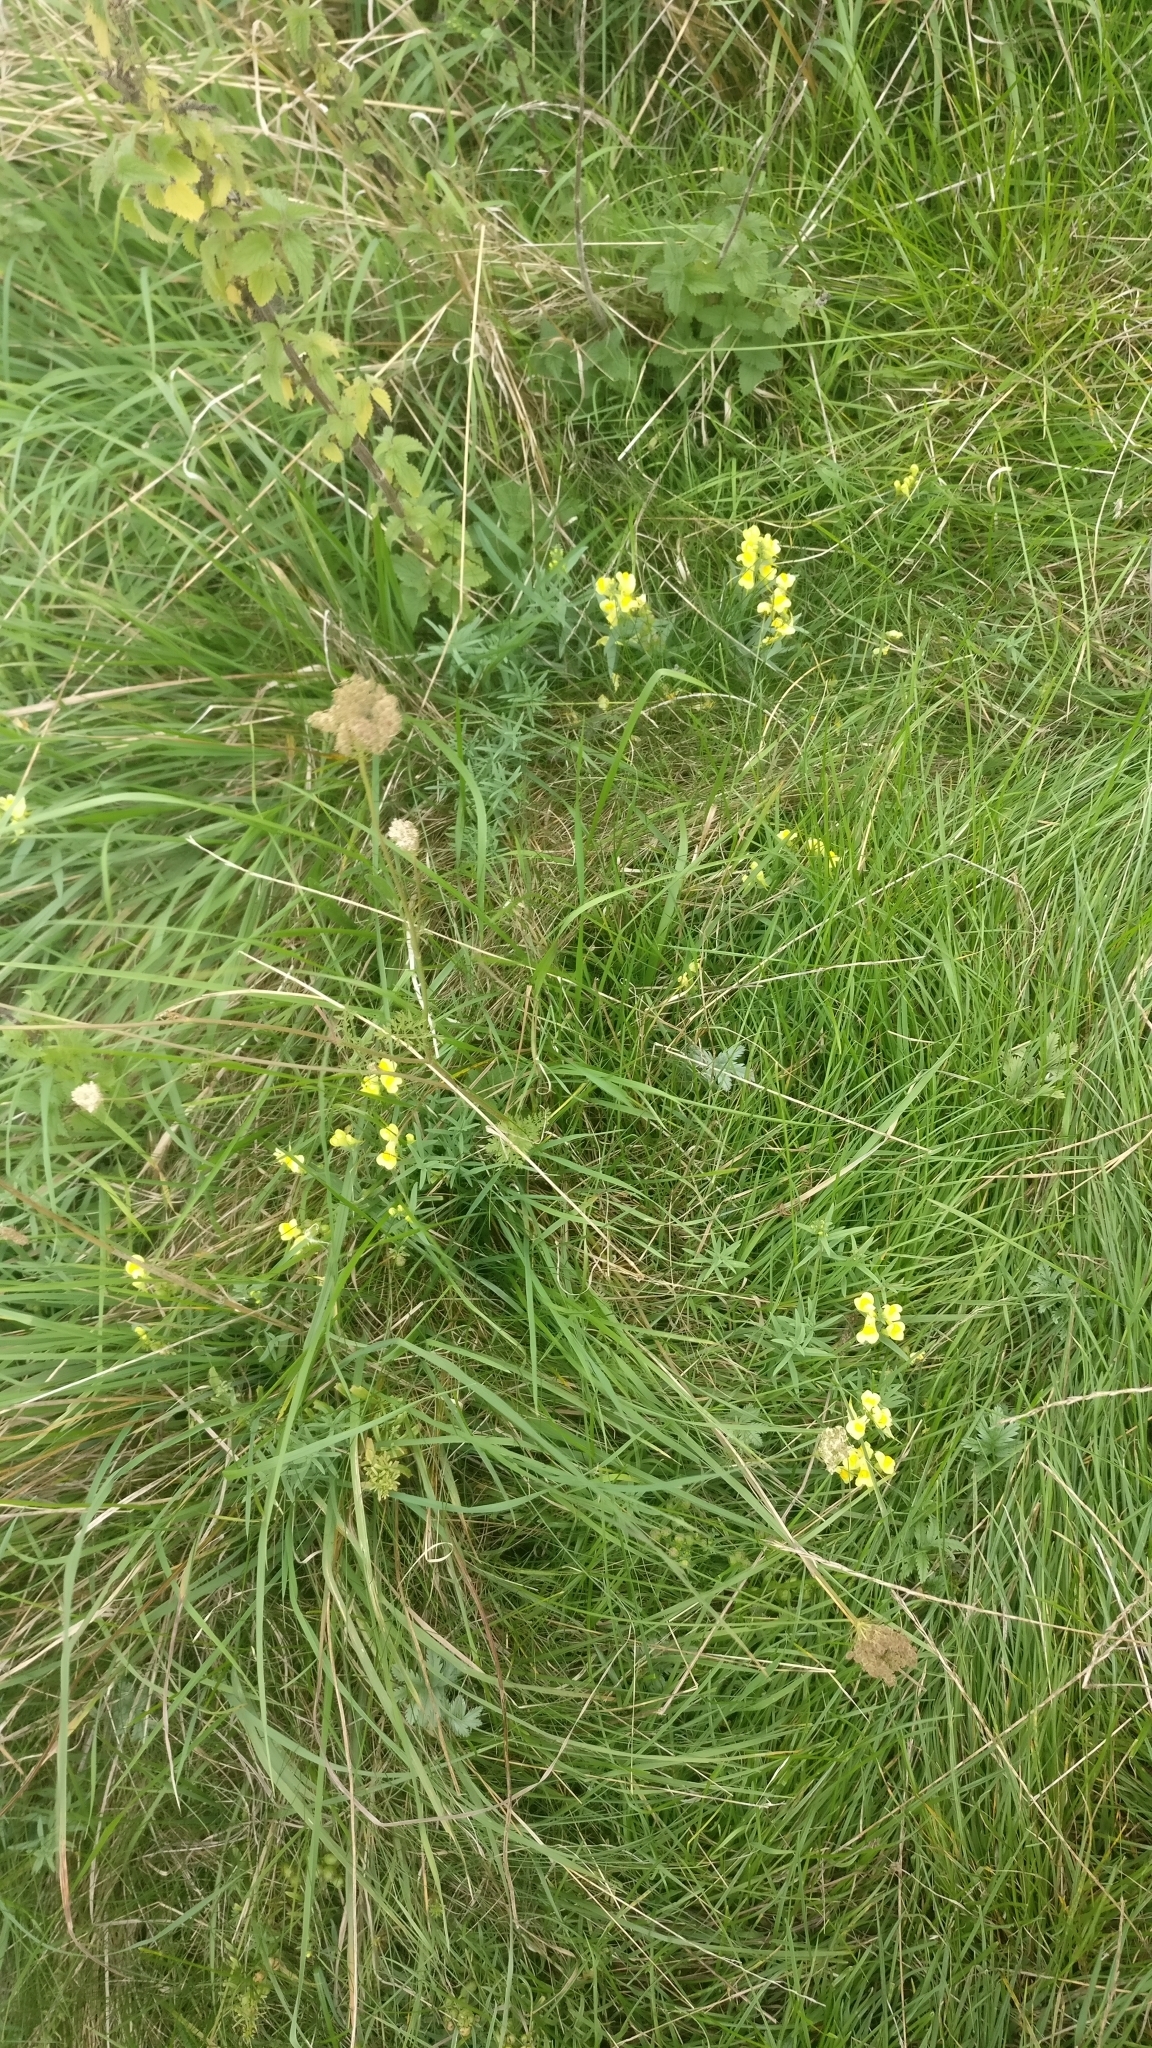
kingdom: Plantae
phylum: Tracheophyta
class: Magnoliopsida
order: Lamiales
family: Plantaginaceae
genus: Linaria
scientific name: Linaria vulgaris
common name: Butter and eggs
